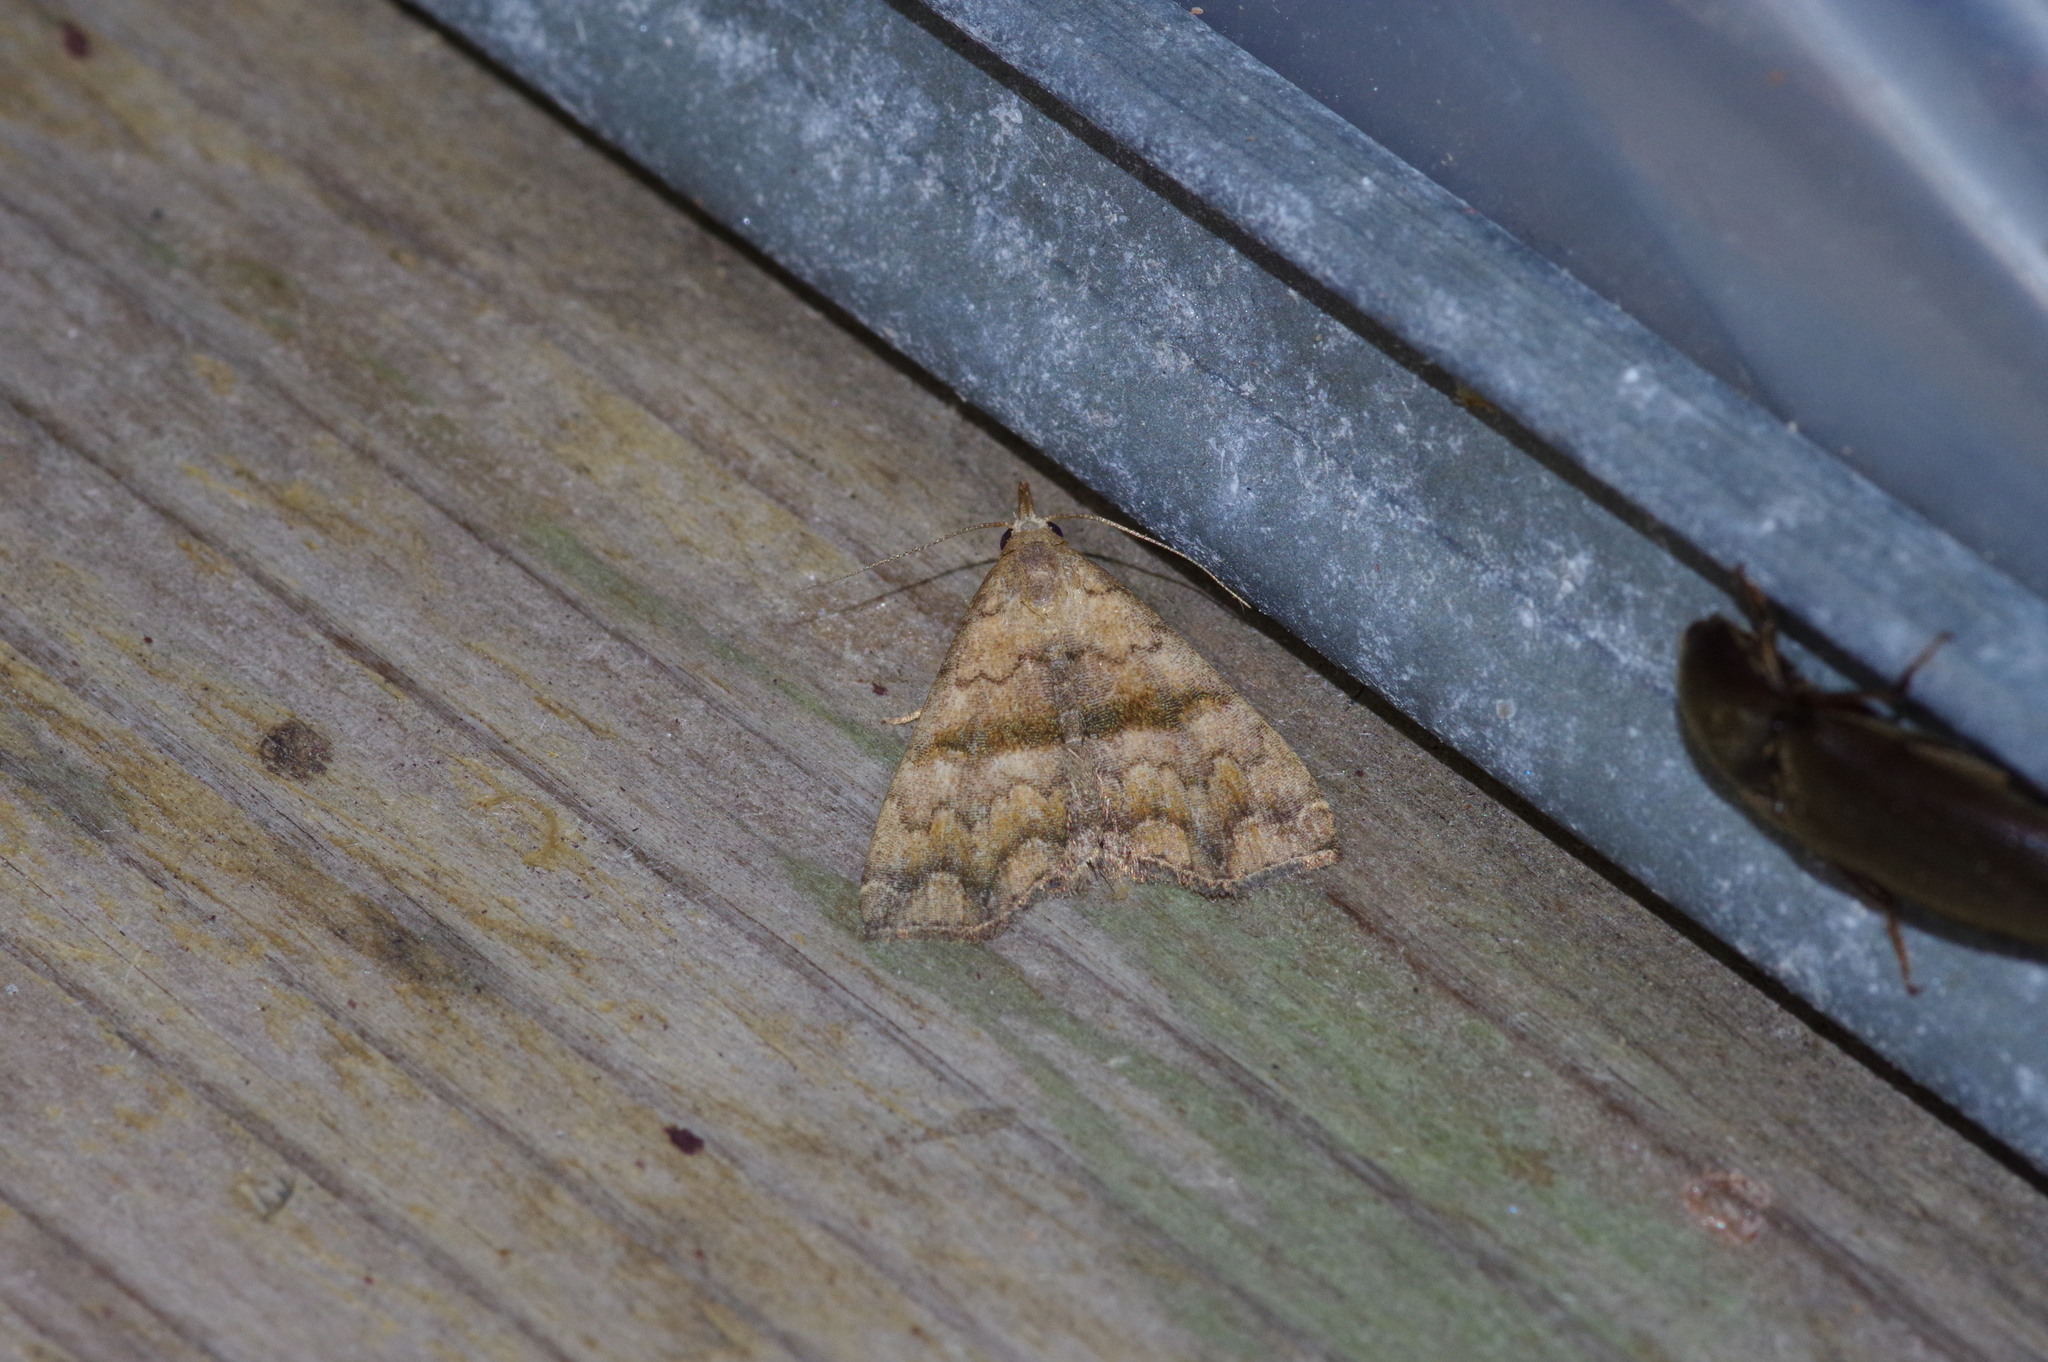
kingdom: Animalia
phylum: Arthropoda
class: Insecta
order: Lepidoptera
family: Erebidae
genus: Polypogon
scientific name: Polypogon Hipoepa fractalis
